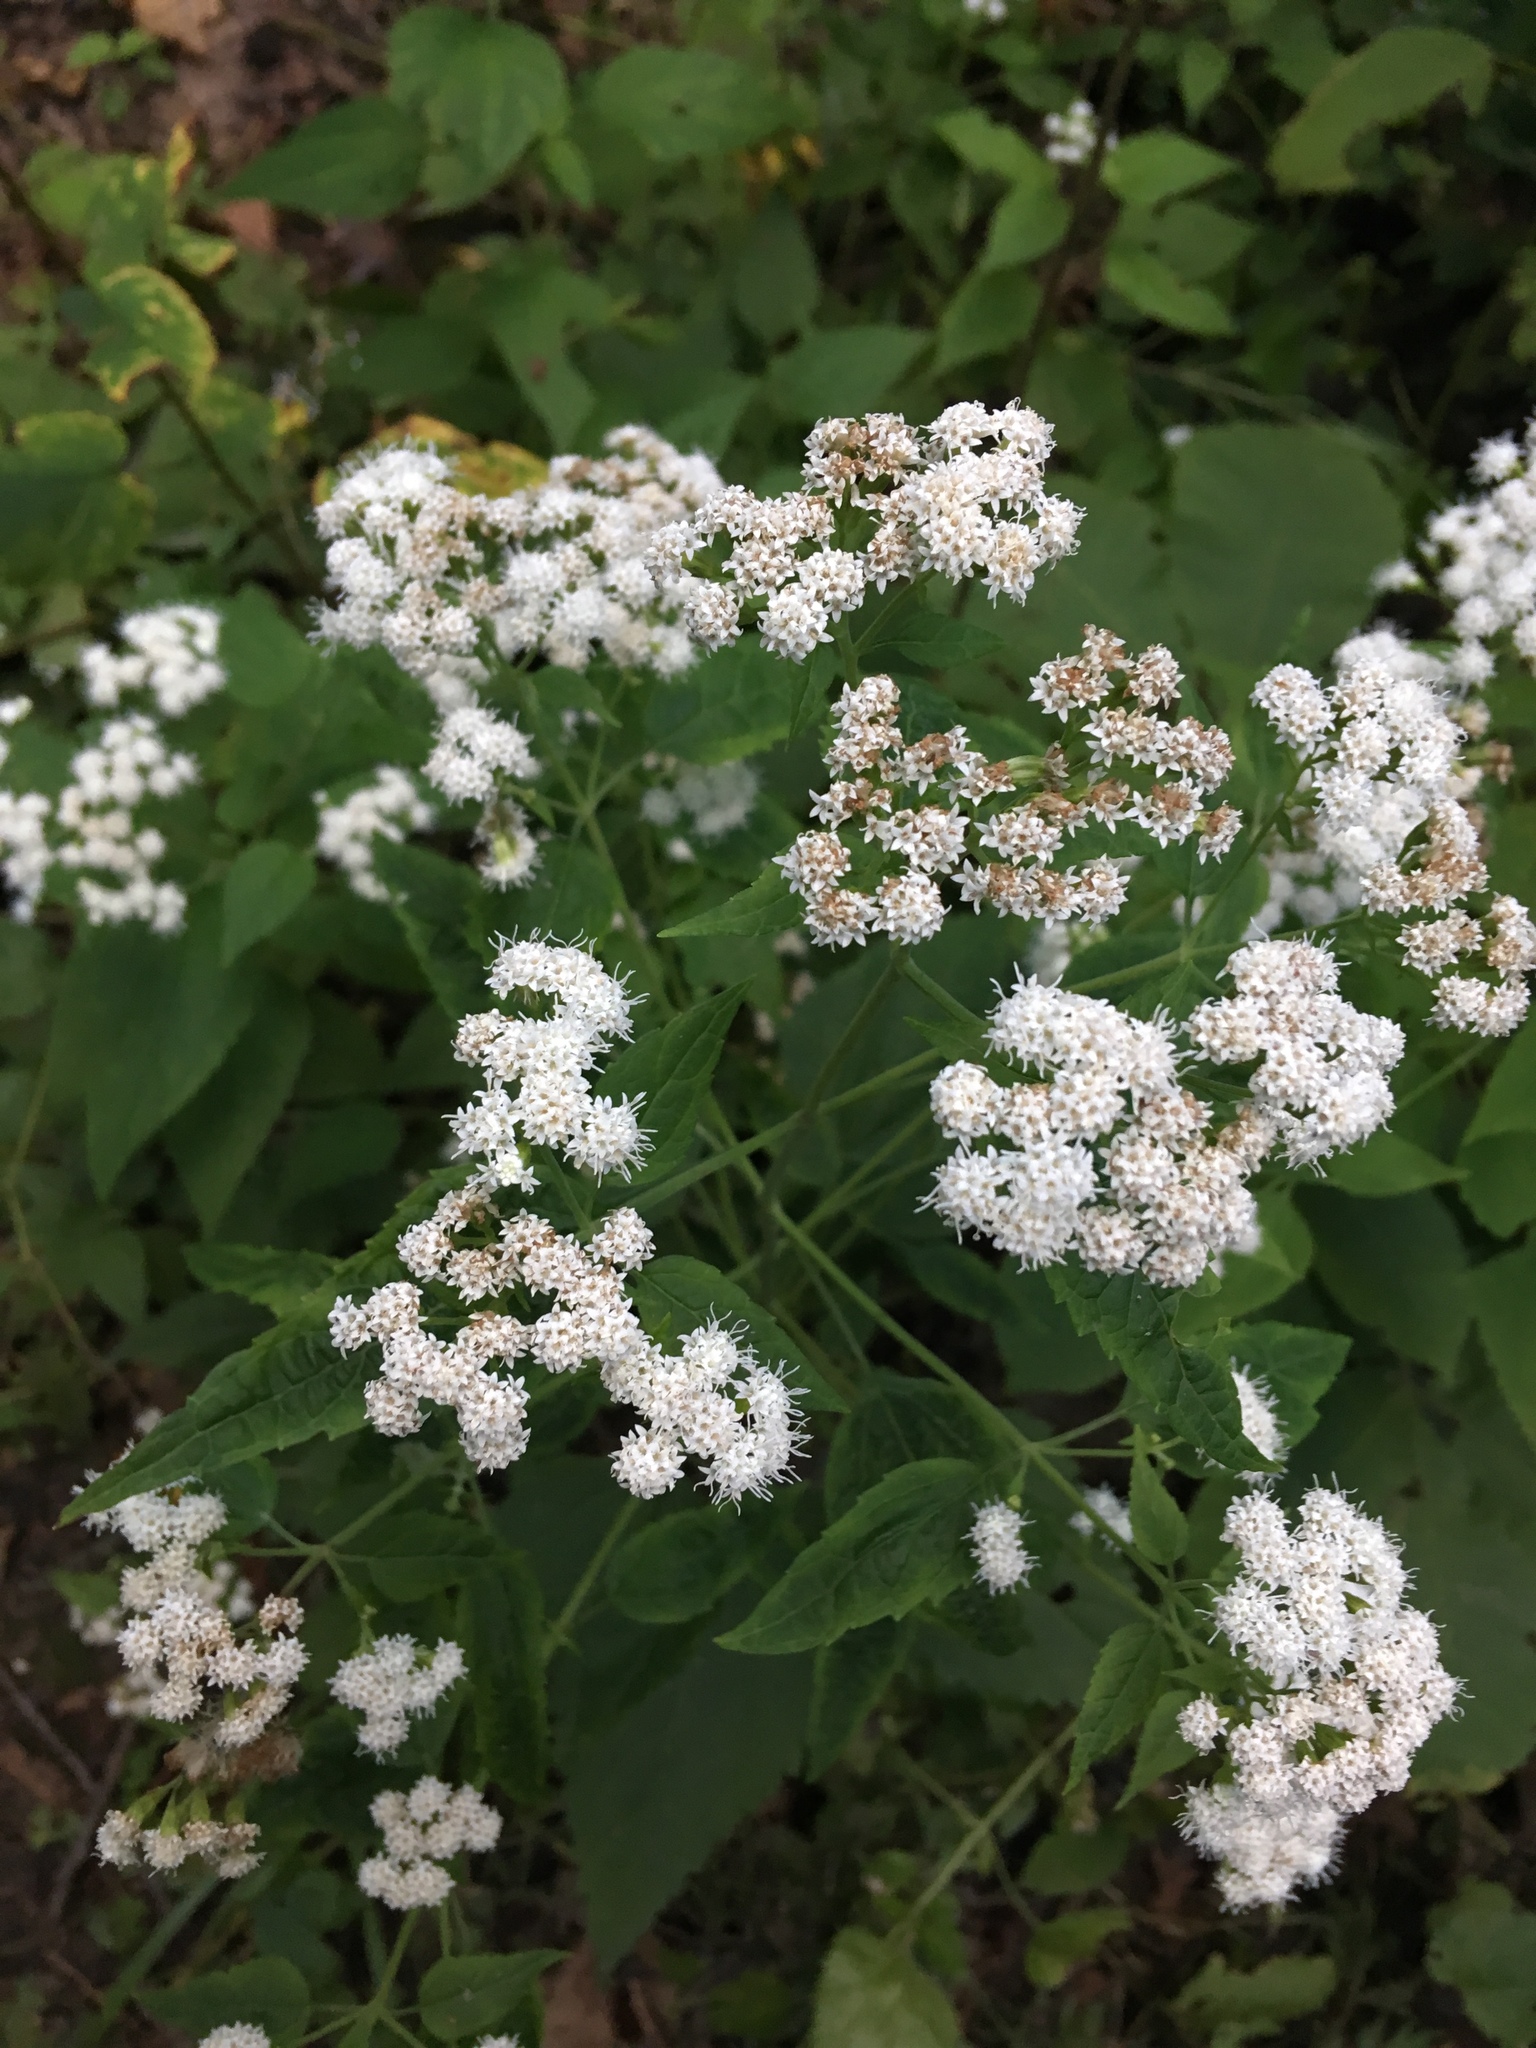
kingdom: Plantae
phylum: Tracheophyta
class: Magnoliopsida
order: Asterales
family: Asteraceae
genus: Ageratina
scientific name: Ageratina altissima
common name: White snakeroot
